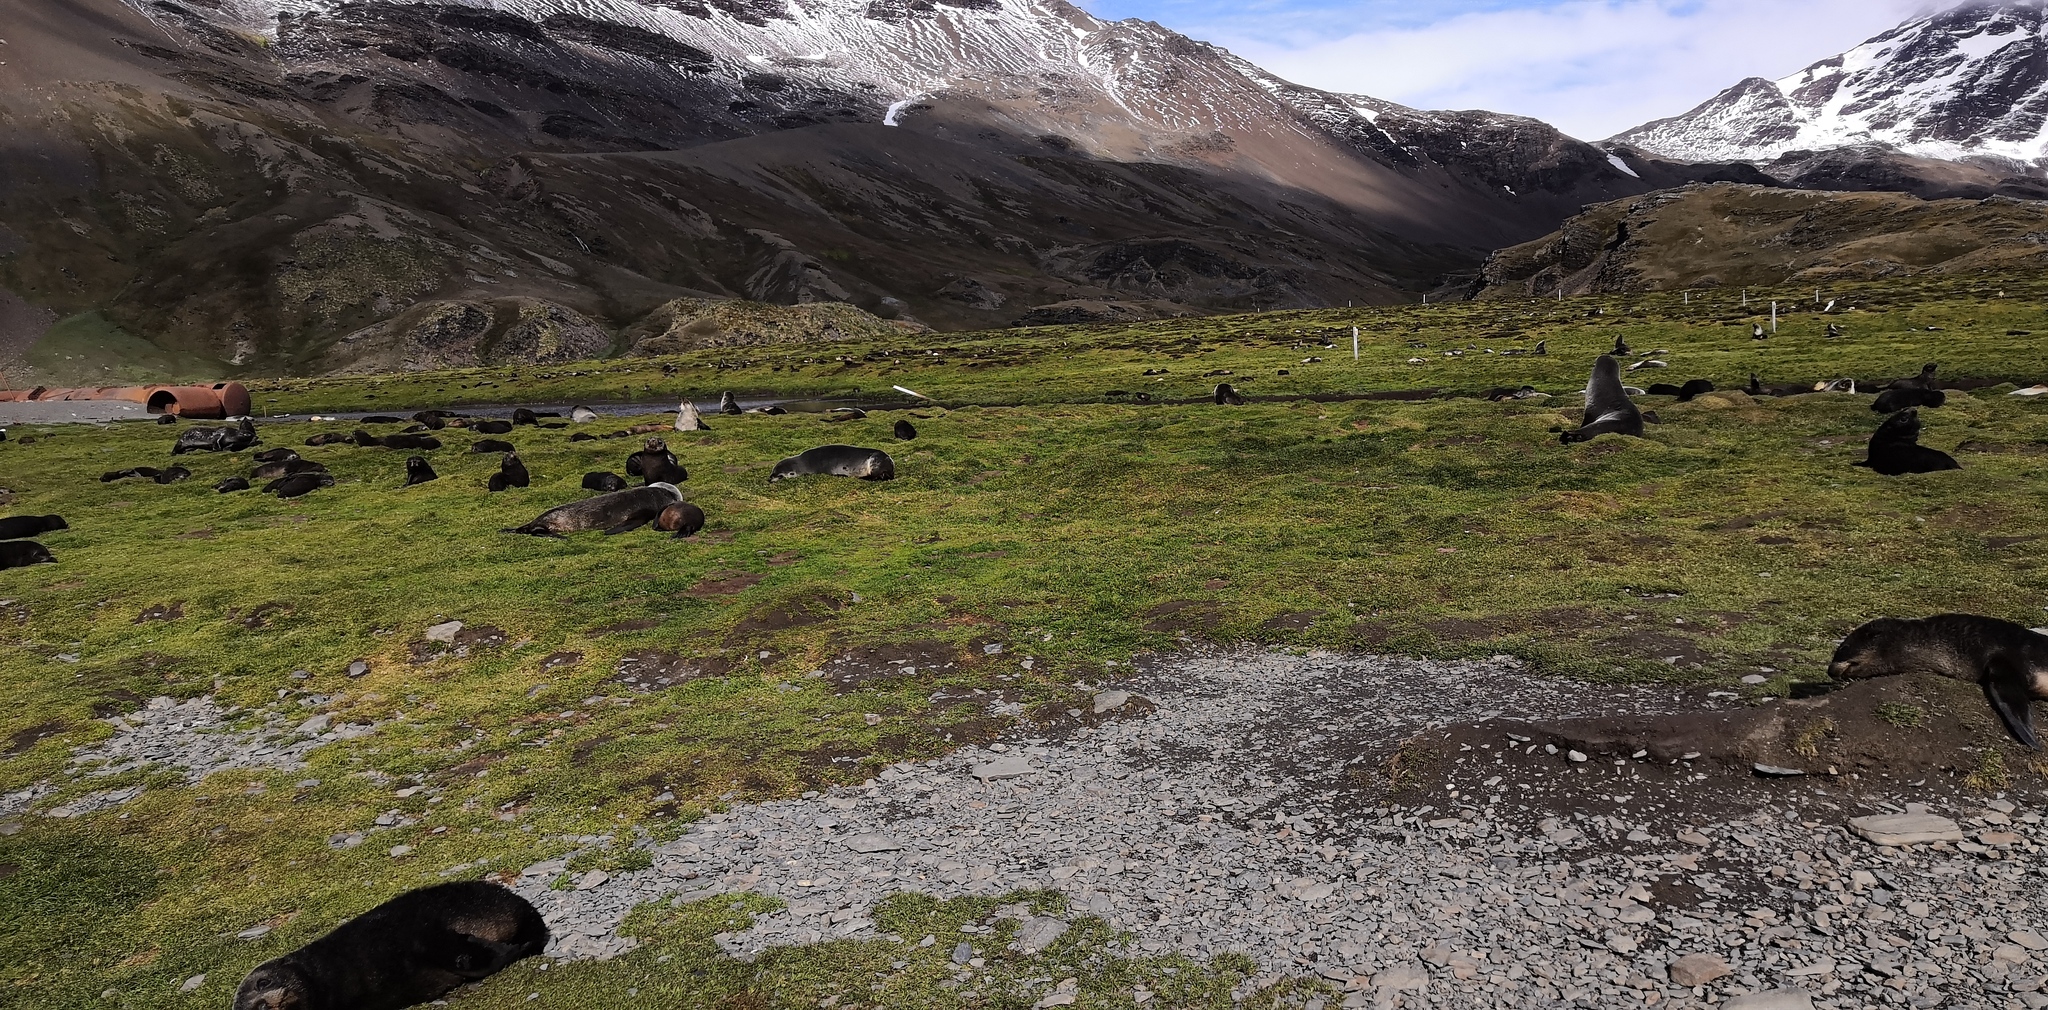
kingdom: Animalia
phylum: Chordata
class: Mammalia
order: Carnivora
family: Otariidae
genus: Arctocephalus
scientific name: Arctocephalus gazella
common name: Antarctic fur seal
